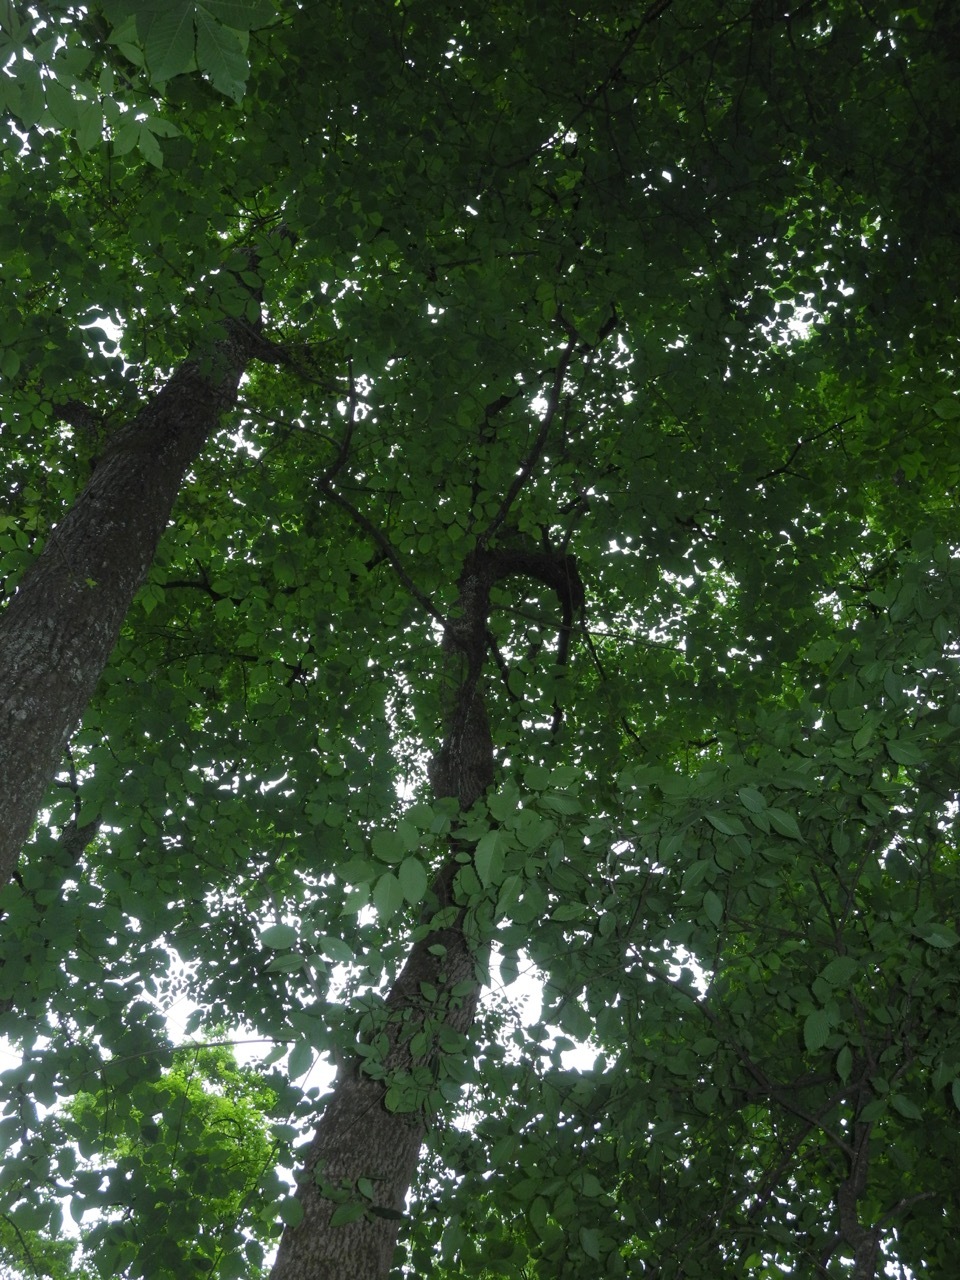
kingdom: Plantae
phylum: Tracheophyta
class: Magnoliopsida
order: Lamiales
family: Oleaceae
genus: Fraxinus
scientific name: Fraxinus americana
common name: White ash
